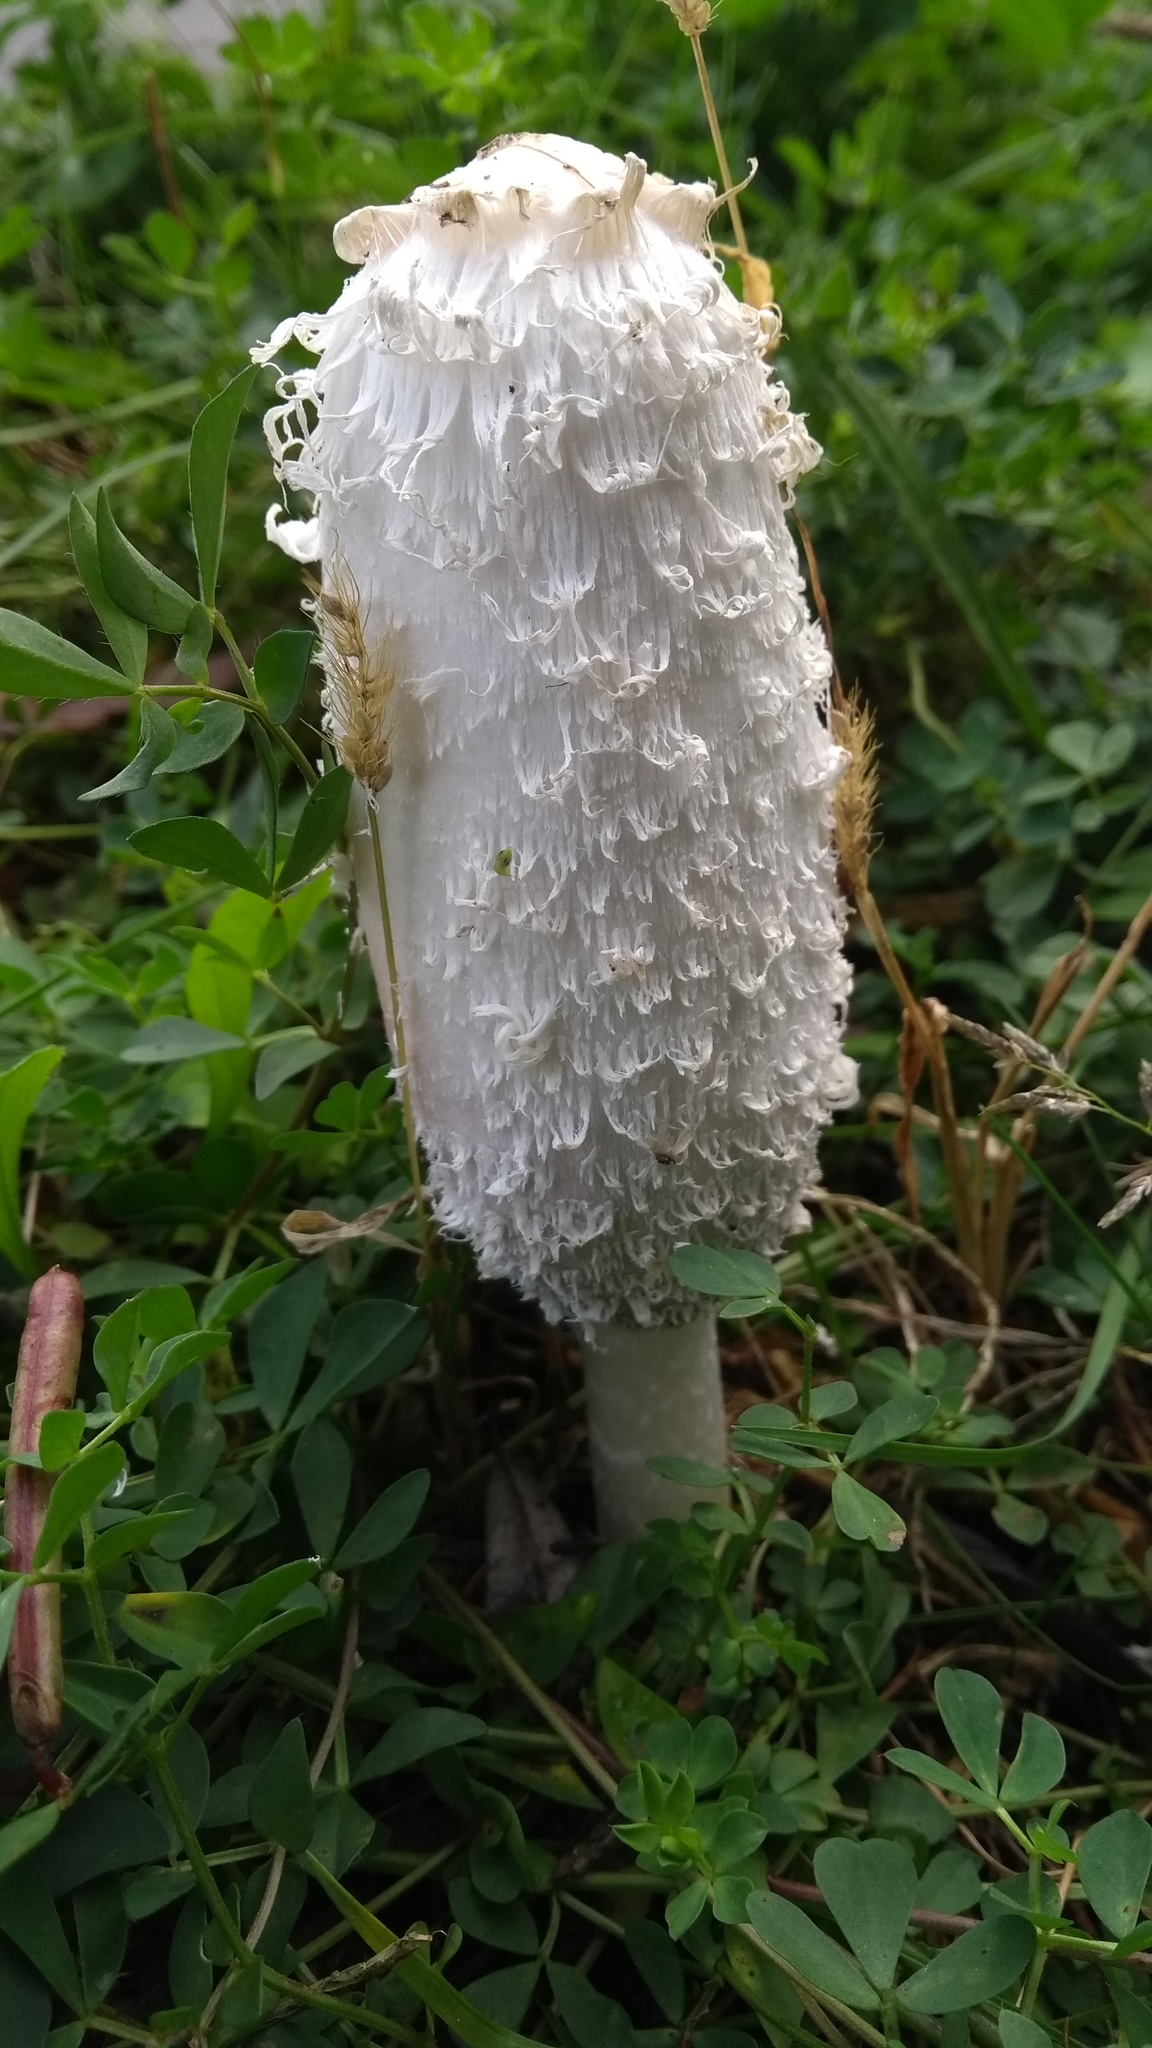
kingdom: Fungi
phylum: Basidiomycota
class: Agaricomycetes
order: Agaricales
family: Agaricaceae
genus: Coprinus
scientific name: Coprinus comatus
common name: Lawyer's wig
